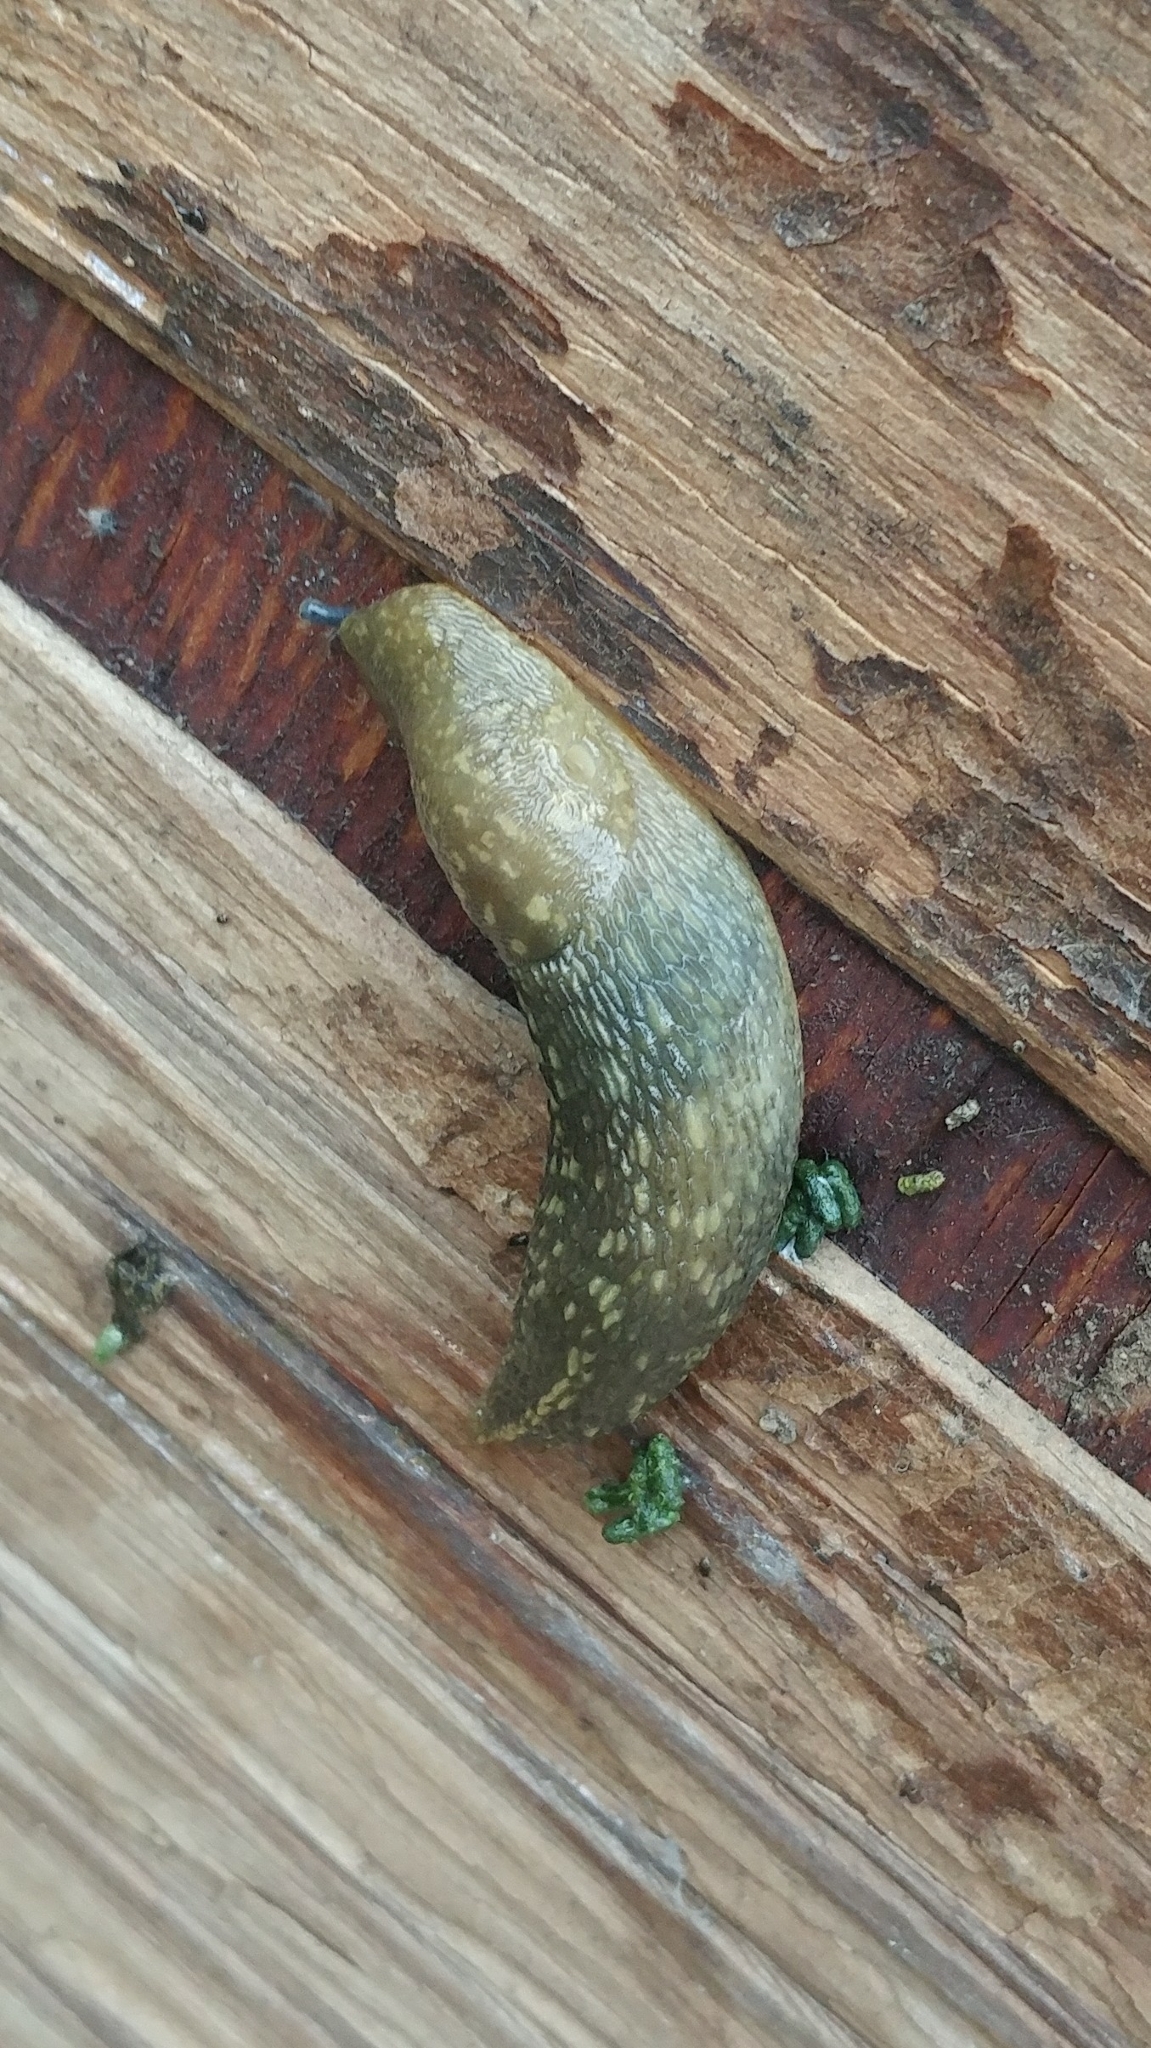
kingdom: Animalia
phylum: Mollusca
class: Gastropoda
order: Stylommatophora
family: Limacidae
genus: Limacus
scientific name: Limacus flavus
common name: Yellow gardenslug
